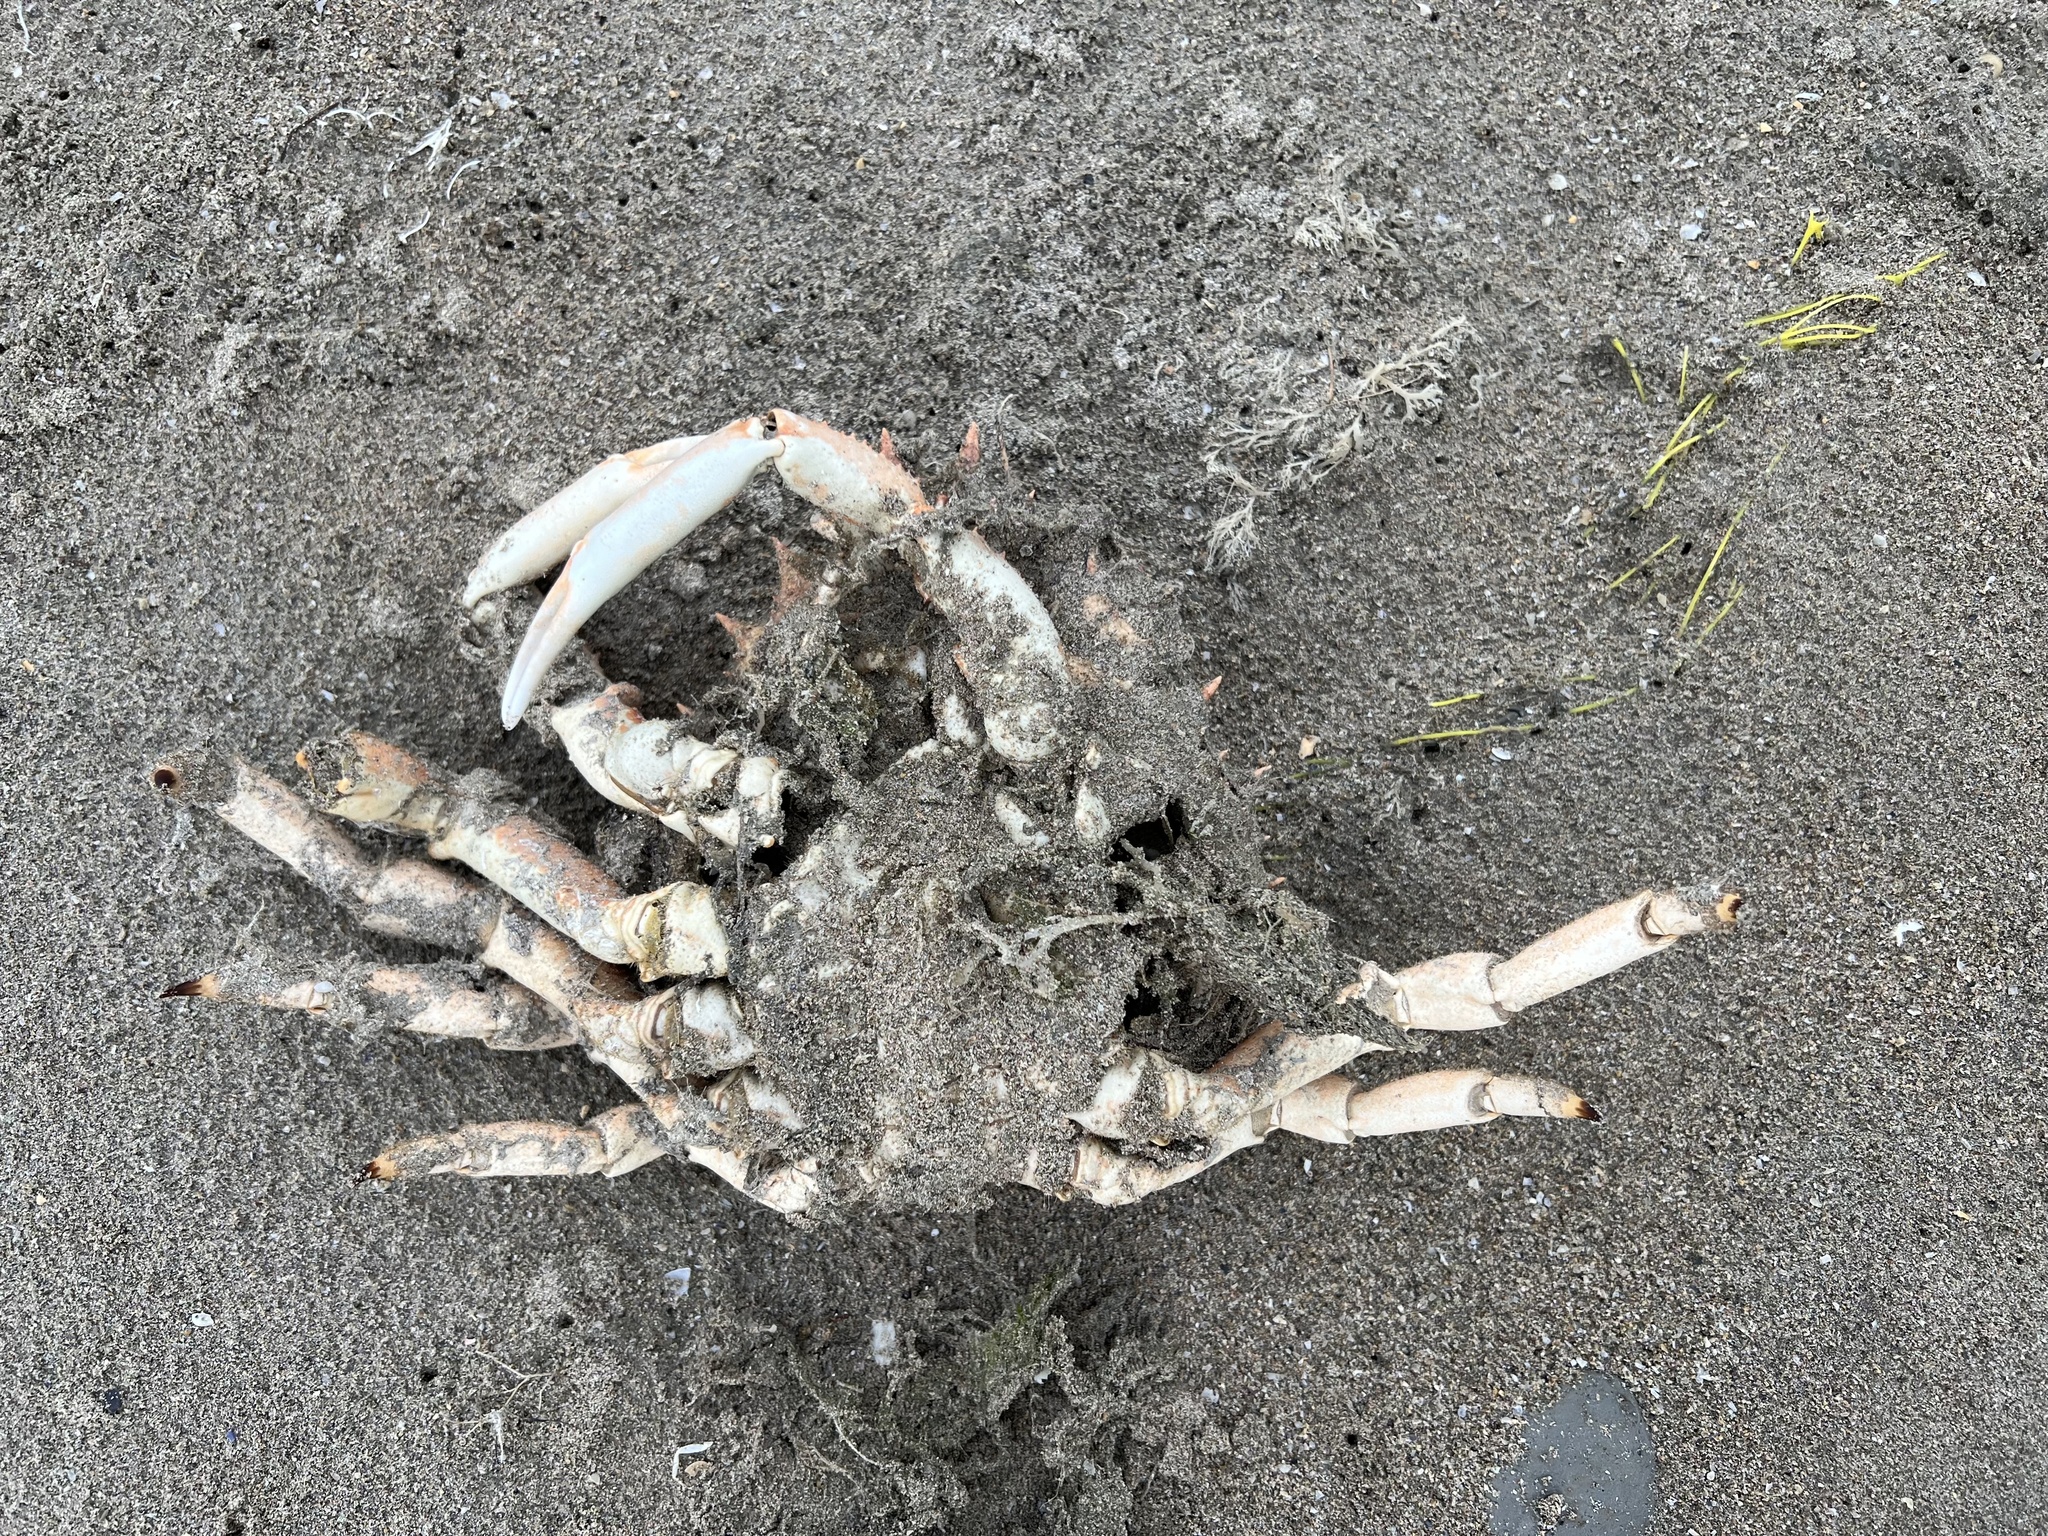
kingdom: Animalia
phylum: Arthropoda
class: Malacostraca
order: Decapoda
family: Majidae
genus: Maja
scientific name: Maja brachydactyla
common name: Common spider crab
